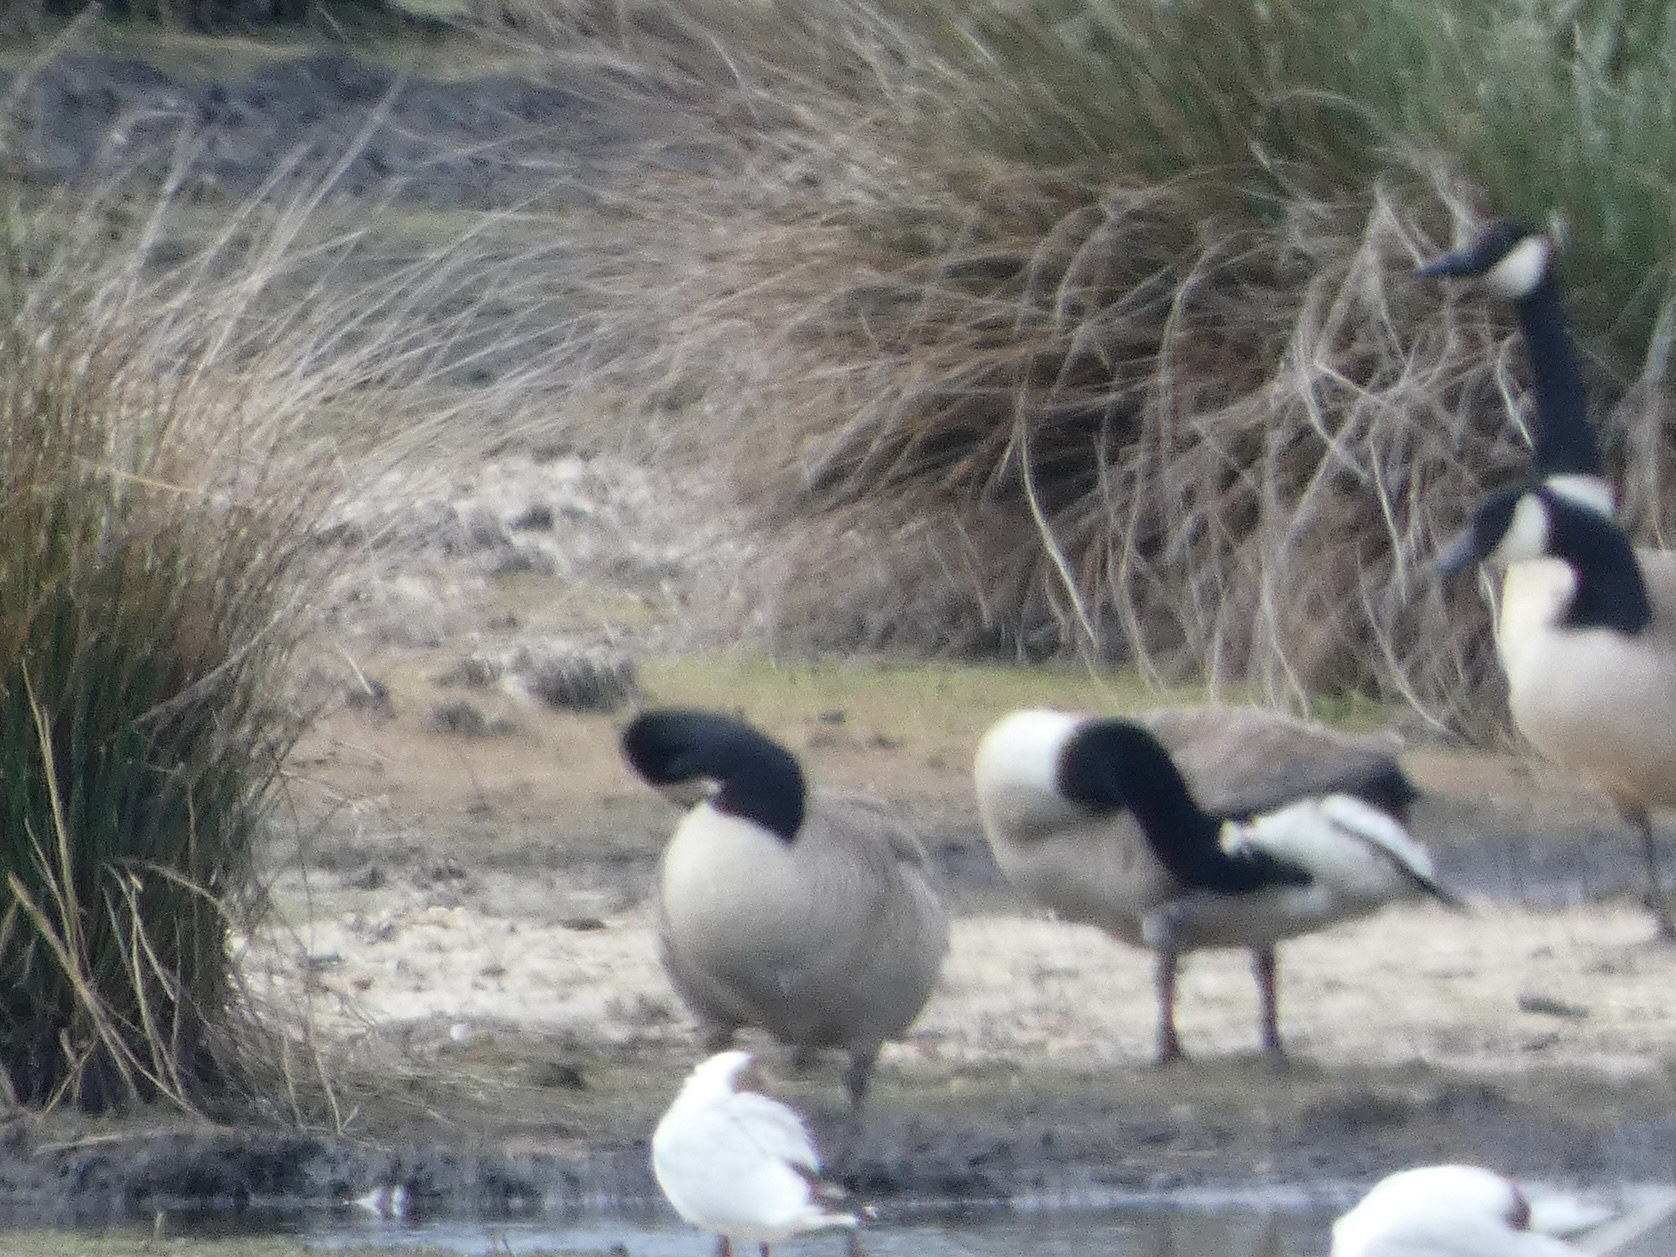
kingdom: Animalia
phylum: Chordata
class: Aves
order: Anseriformes
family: Anatidae
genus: Branta
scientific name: Branta canadensis
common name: Canada goose
